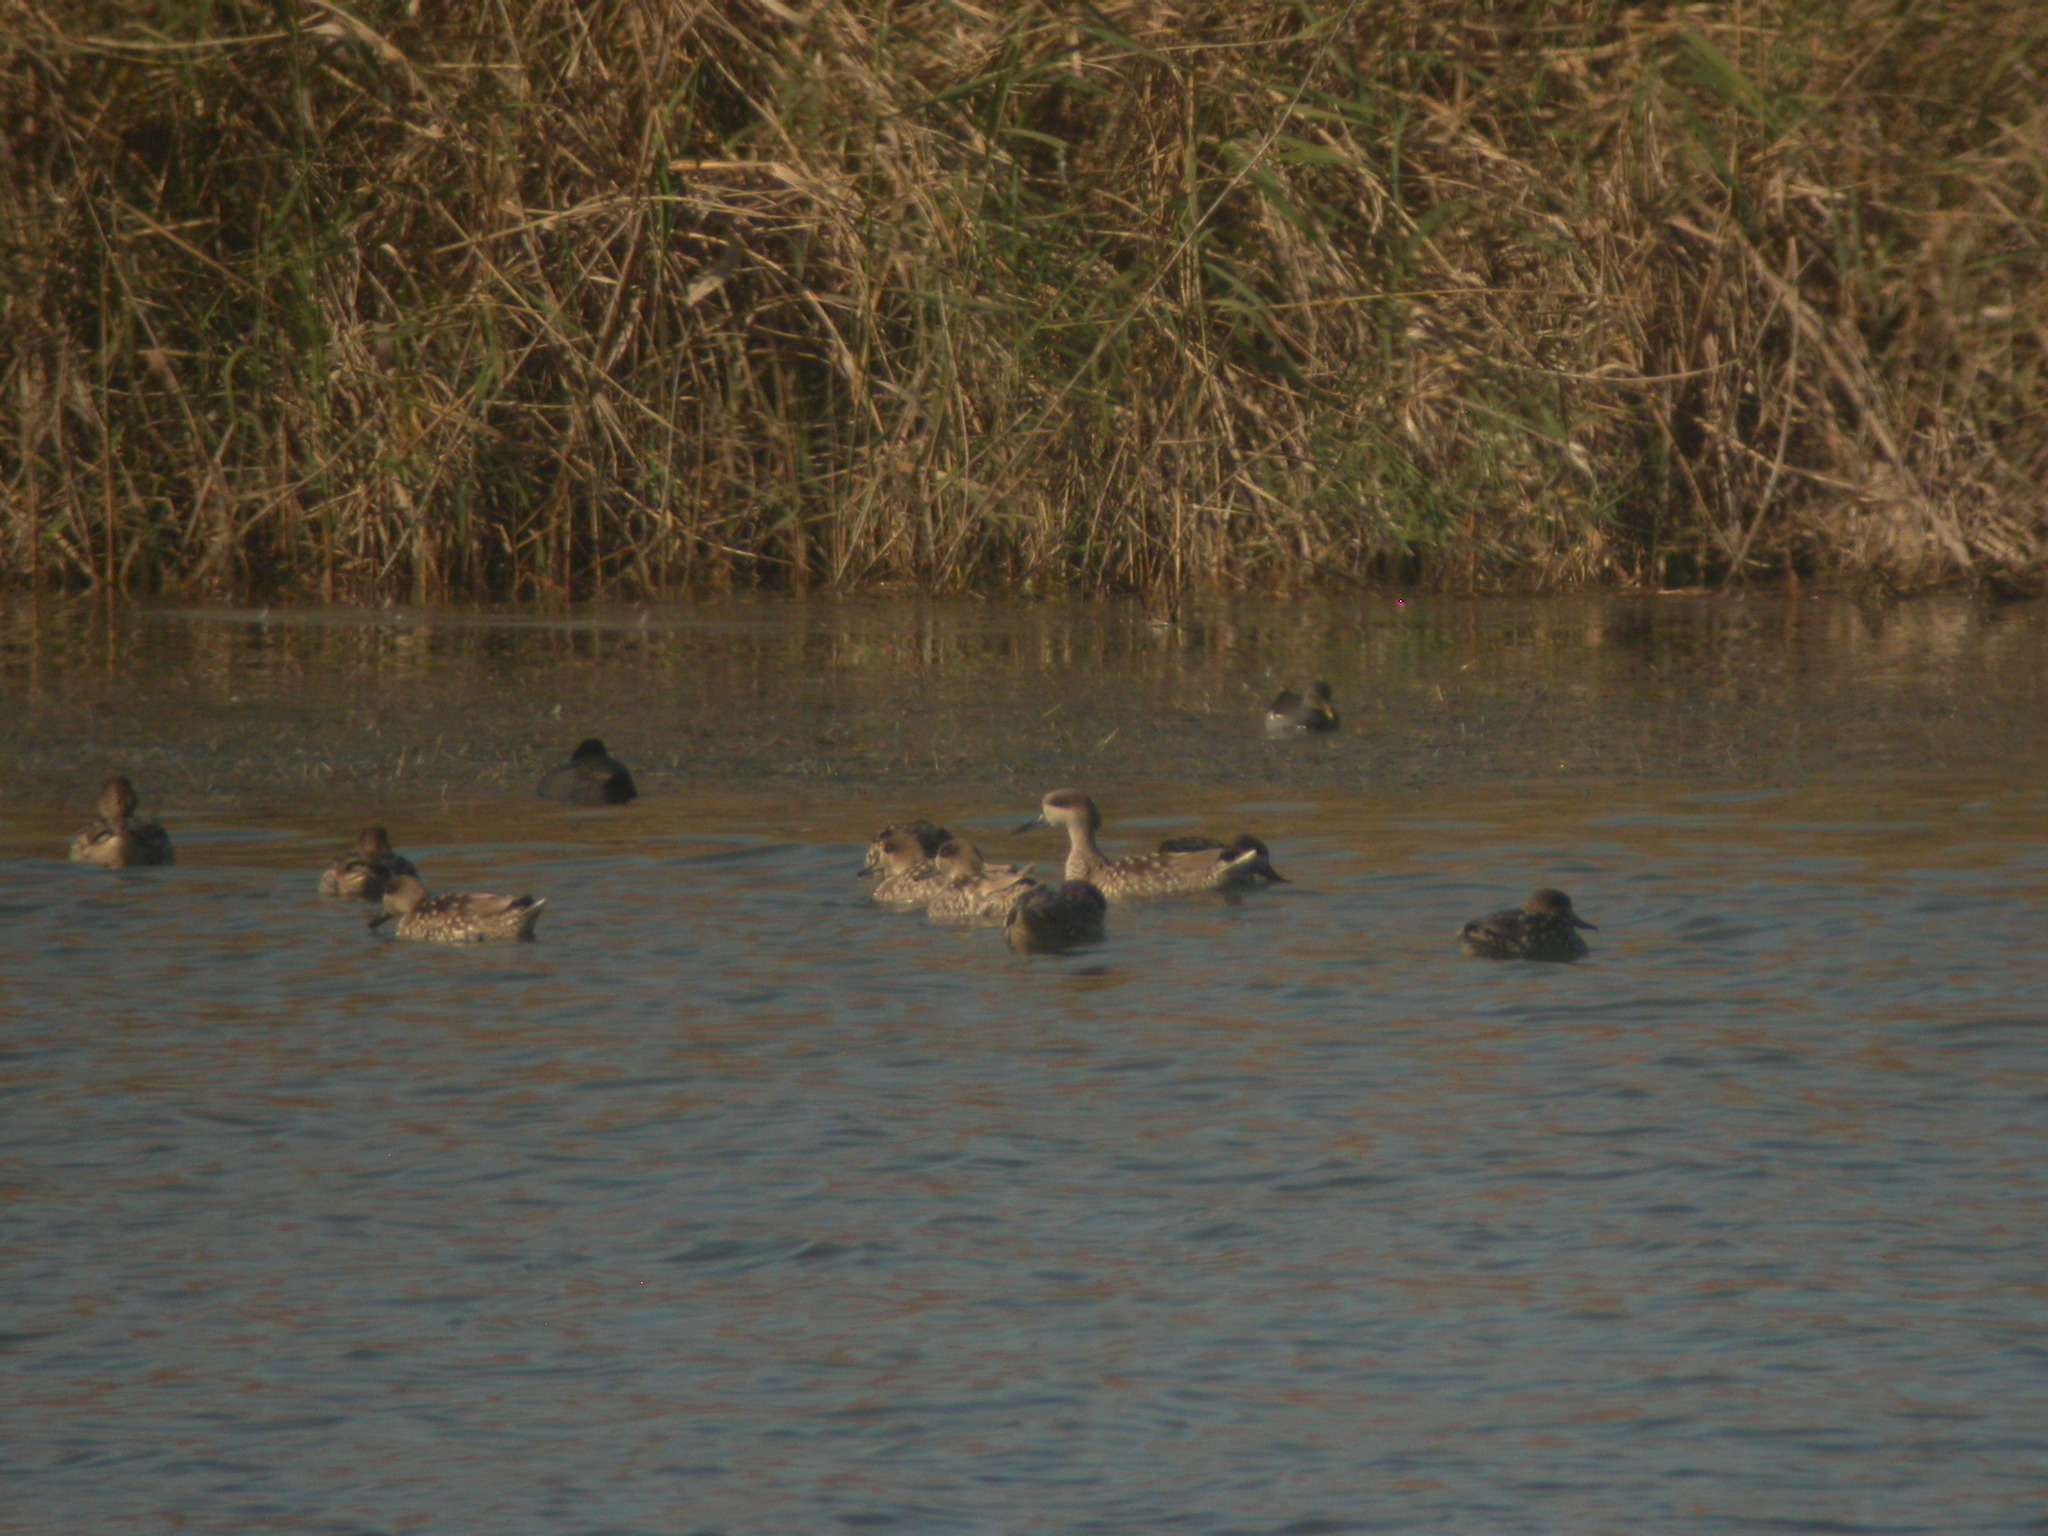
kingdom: Animalia
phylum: Chordata
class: Aves
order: Anseriformes
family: Anatidae
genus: Marmaronetta
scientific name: Marmaronetta angustirostris
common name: Marbled duck
